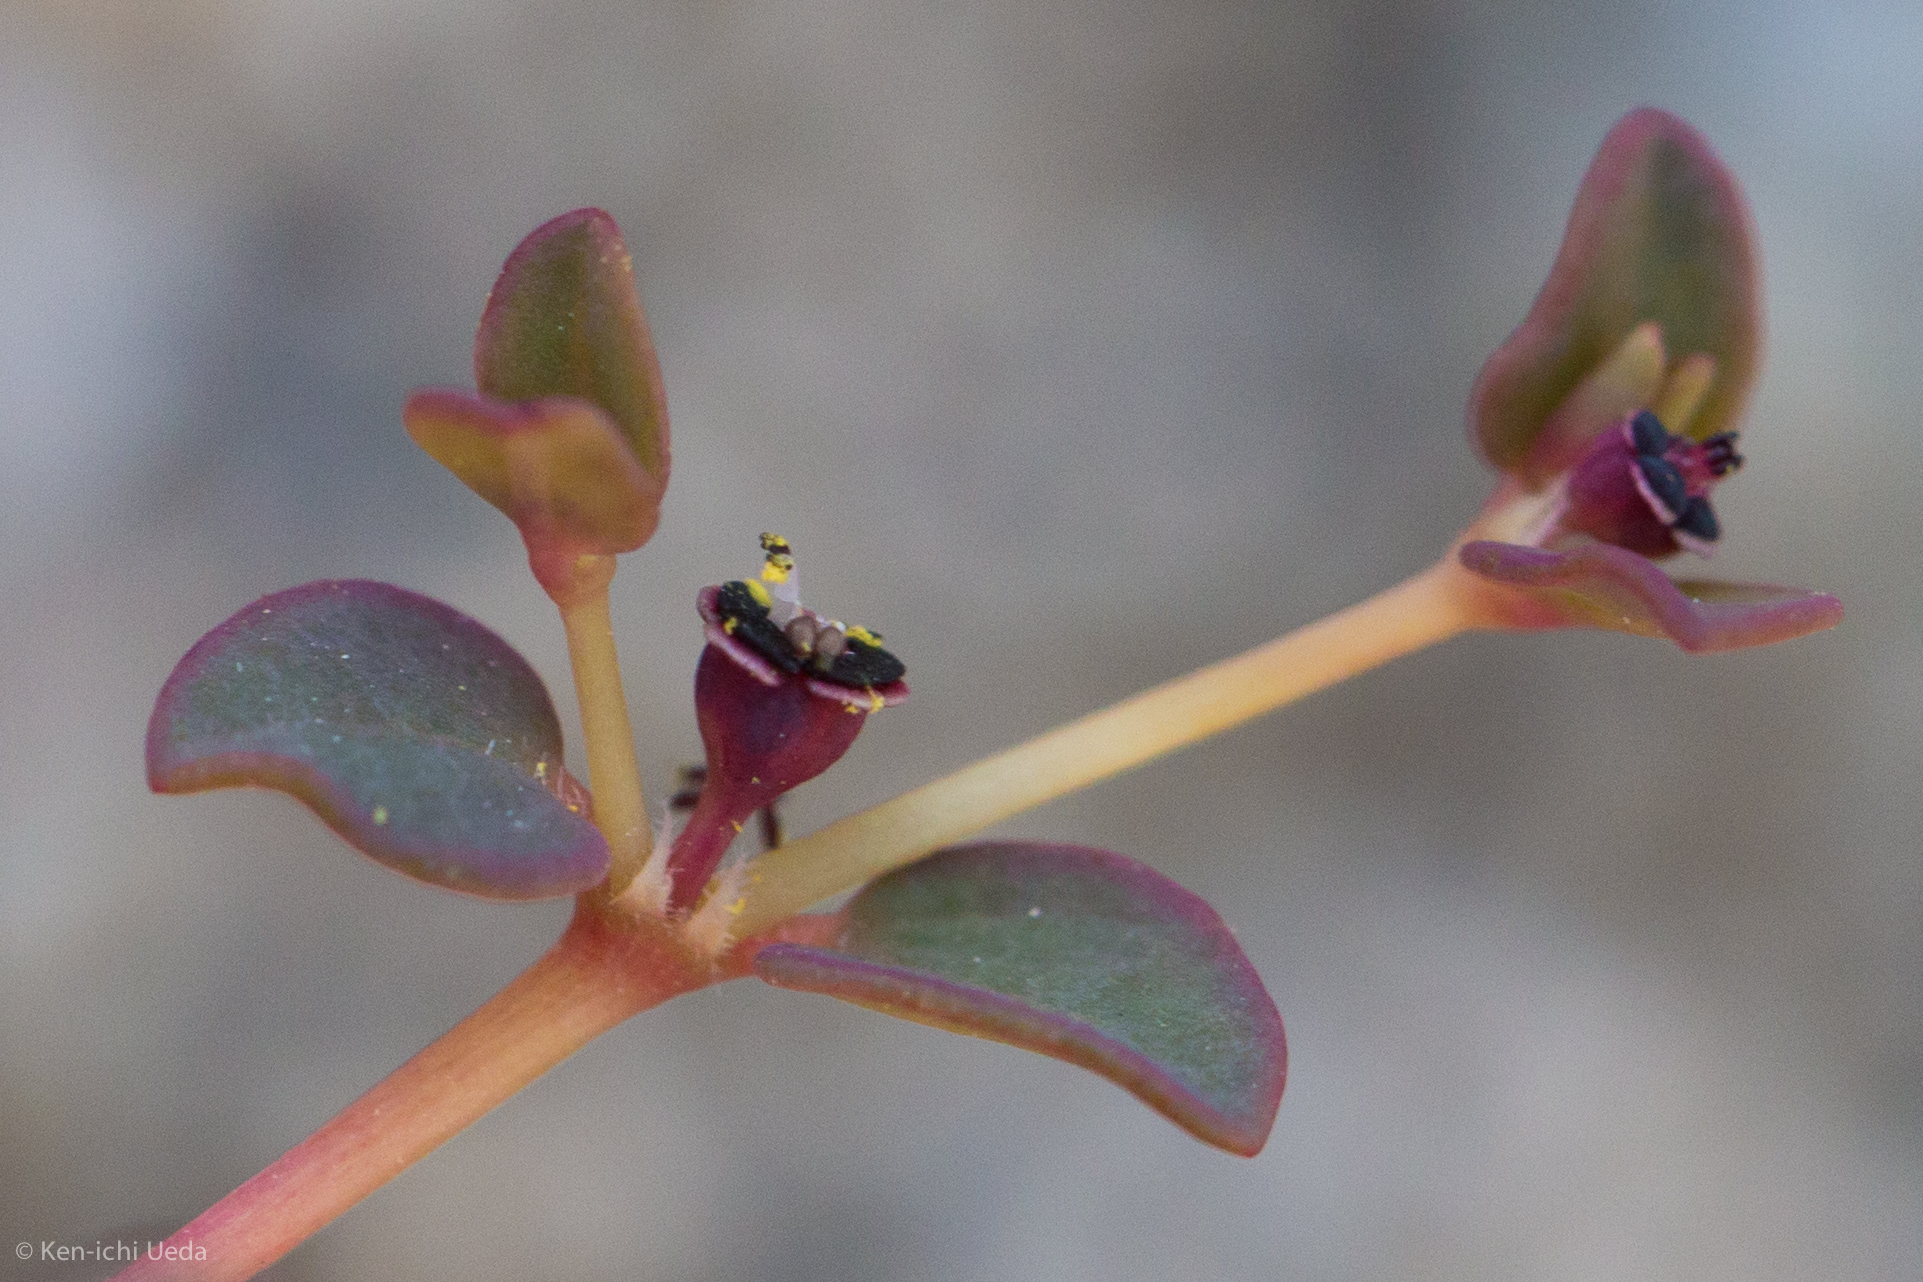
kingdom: Plantae
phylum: Tracheophyta
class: Magnoliopsida
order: Malpighiales
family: Euphorbiaceae
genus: Euphorbia
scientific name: Euphorbia polycarpa
